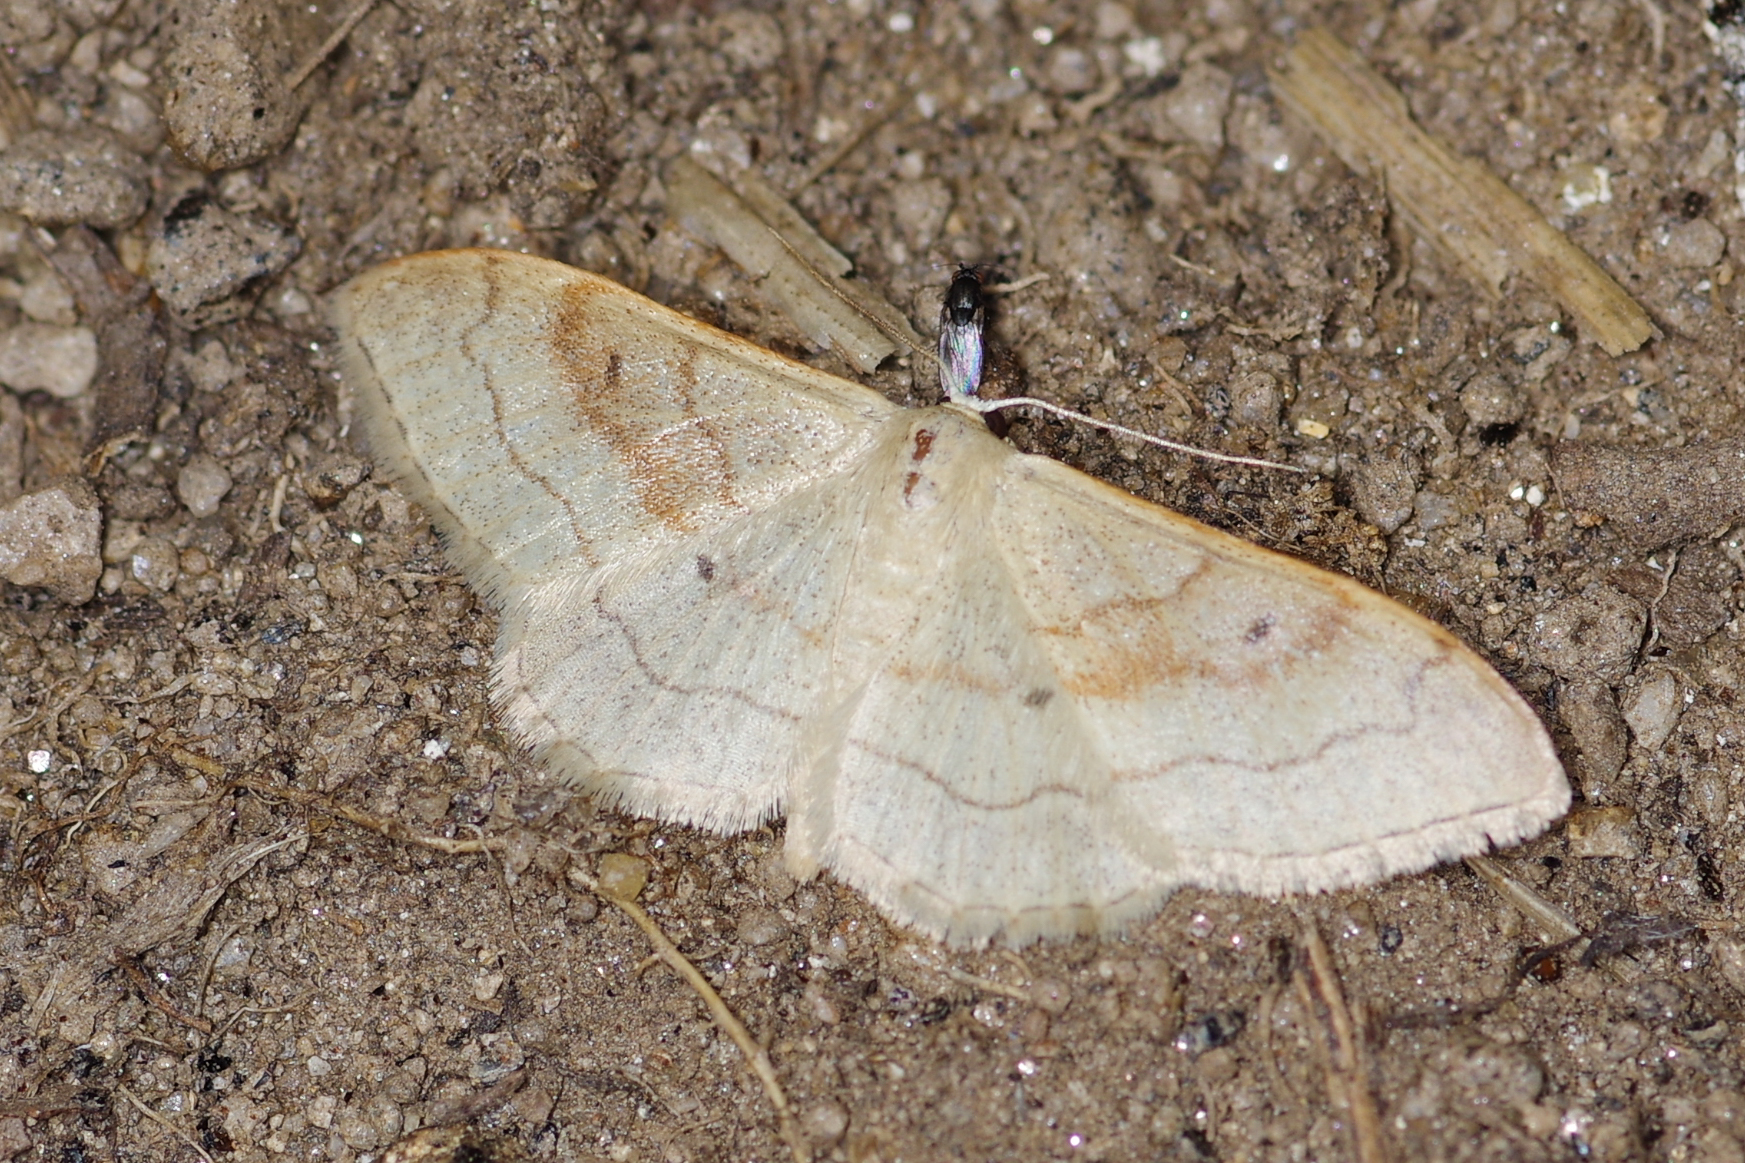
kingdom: Animalia
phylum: Arthropoda
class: Insecta
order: Lepidoptera
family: Geometridae
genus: Idaea
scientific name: Idaea bilinearia
